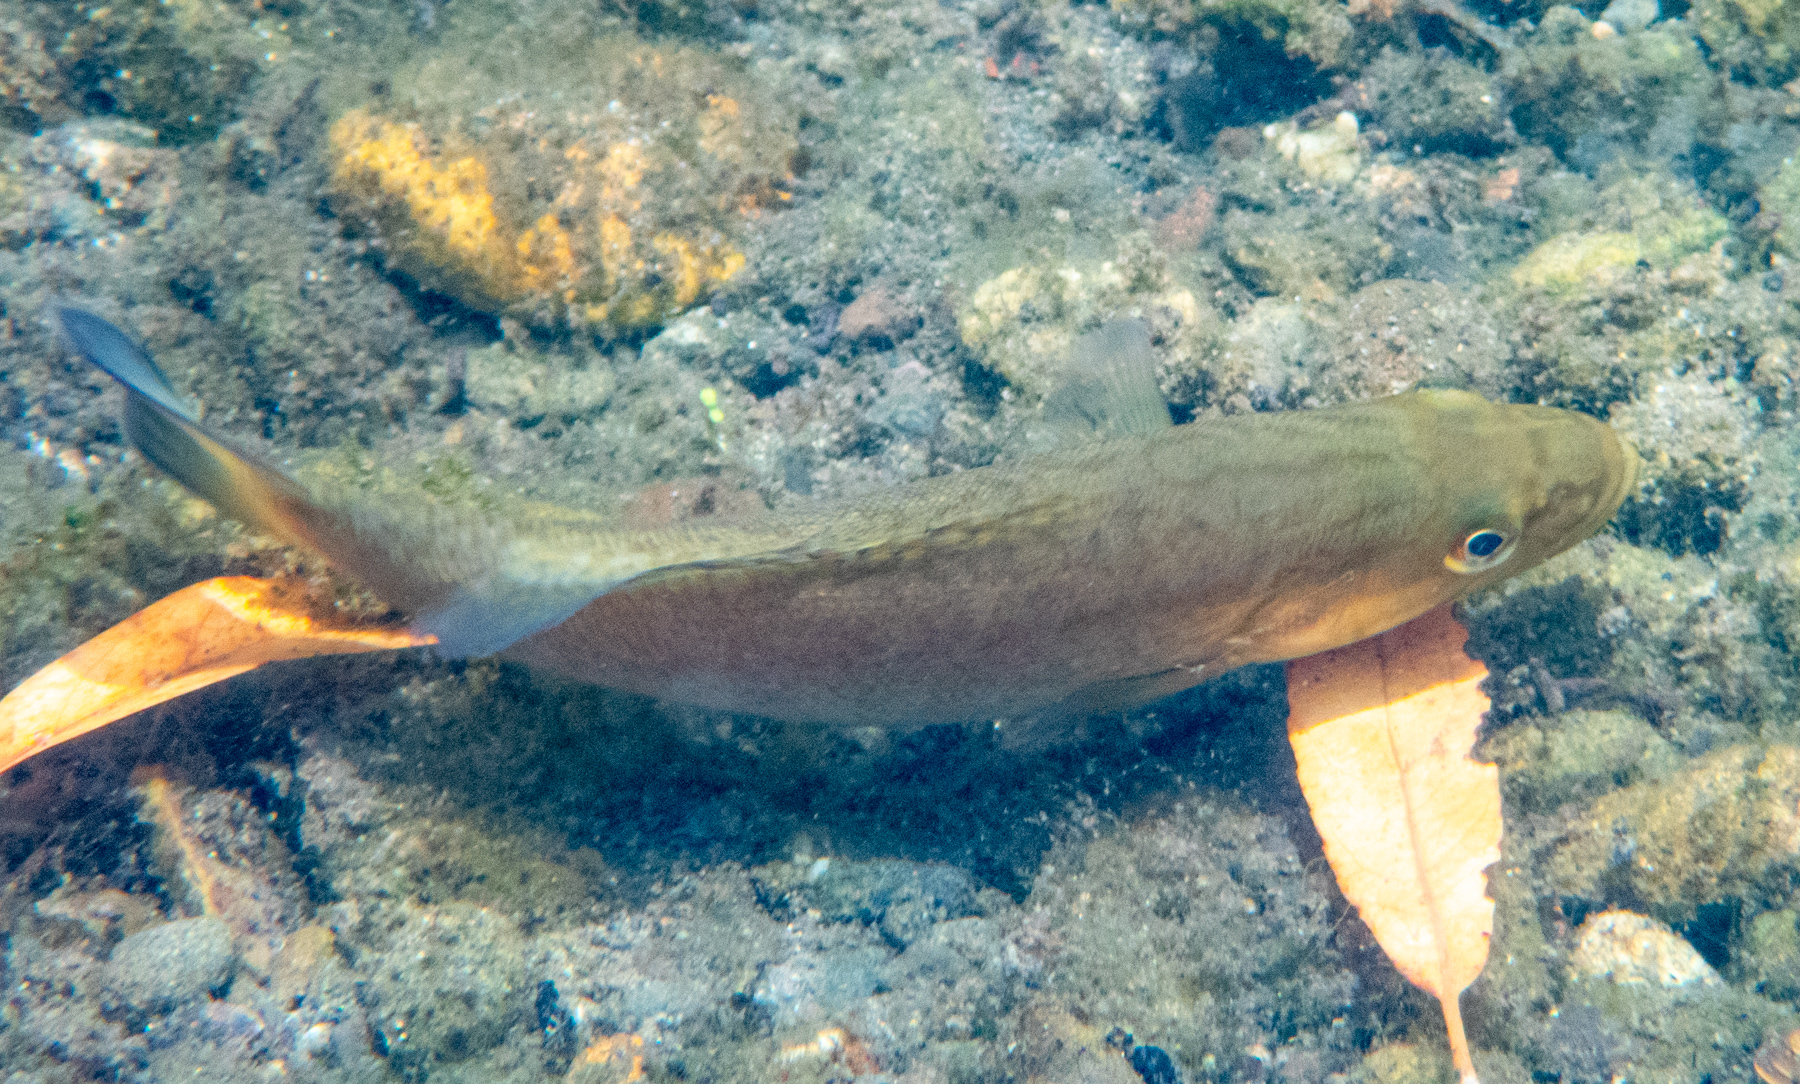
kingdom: Animalia
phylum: Chordata
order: Perciformes
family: Centrarchidae
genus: Micropterus
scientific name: Micropterus dolomieu
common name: Smallmouth bass
